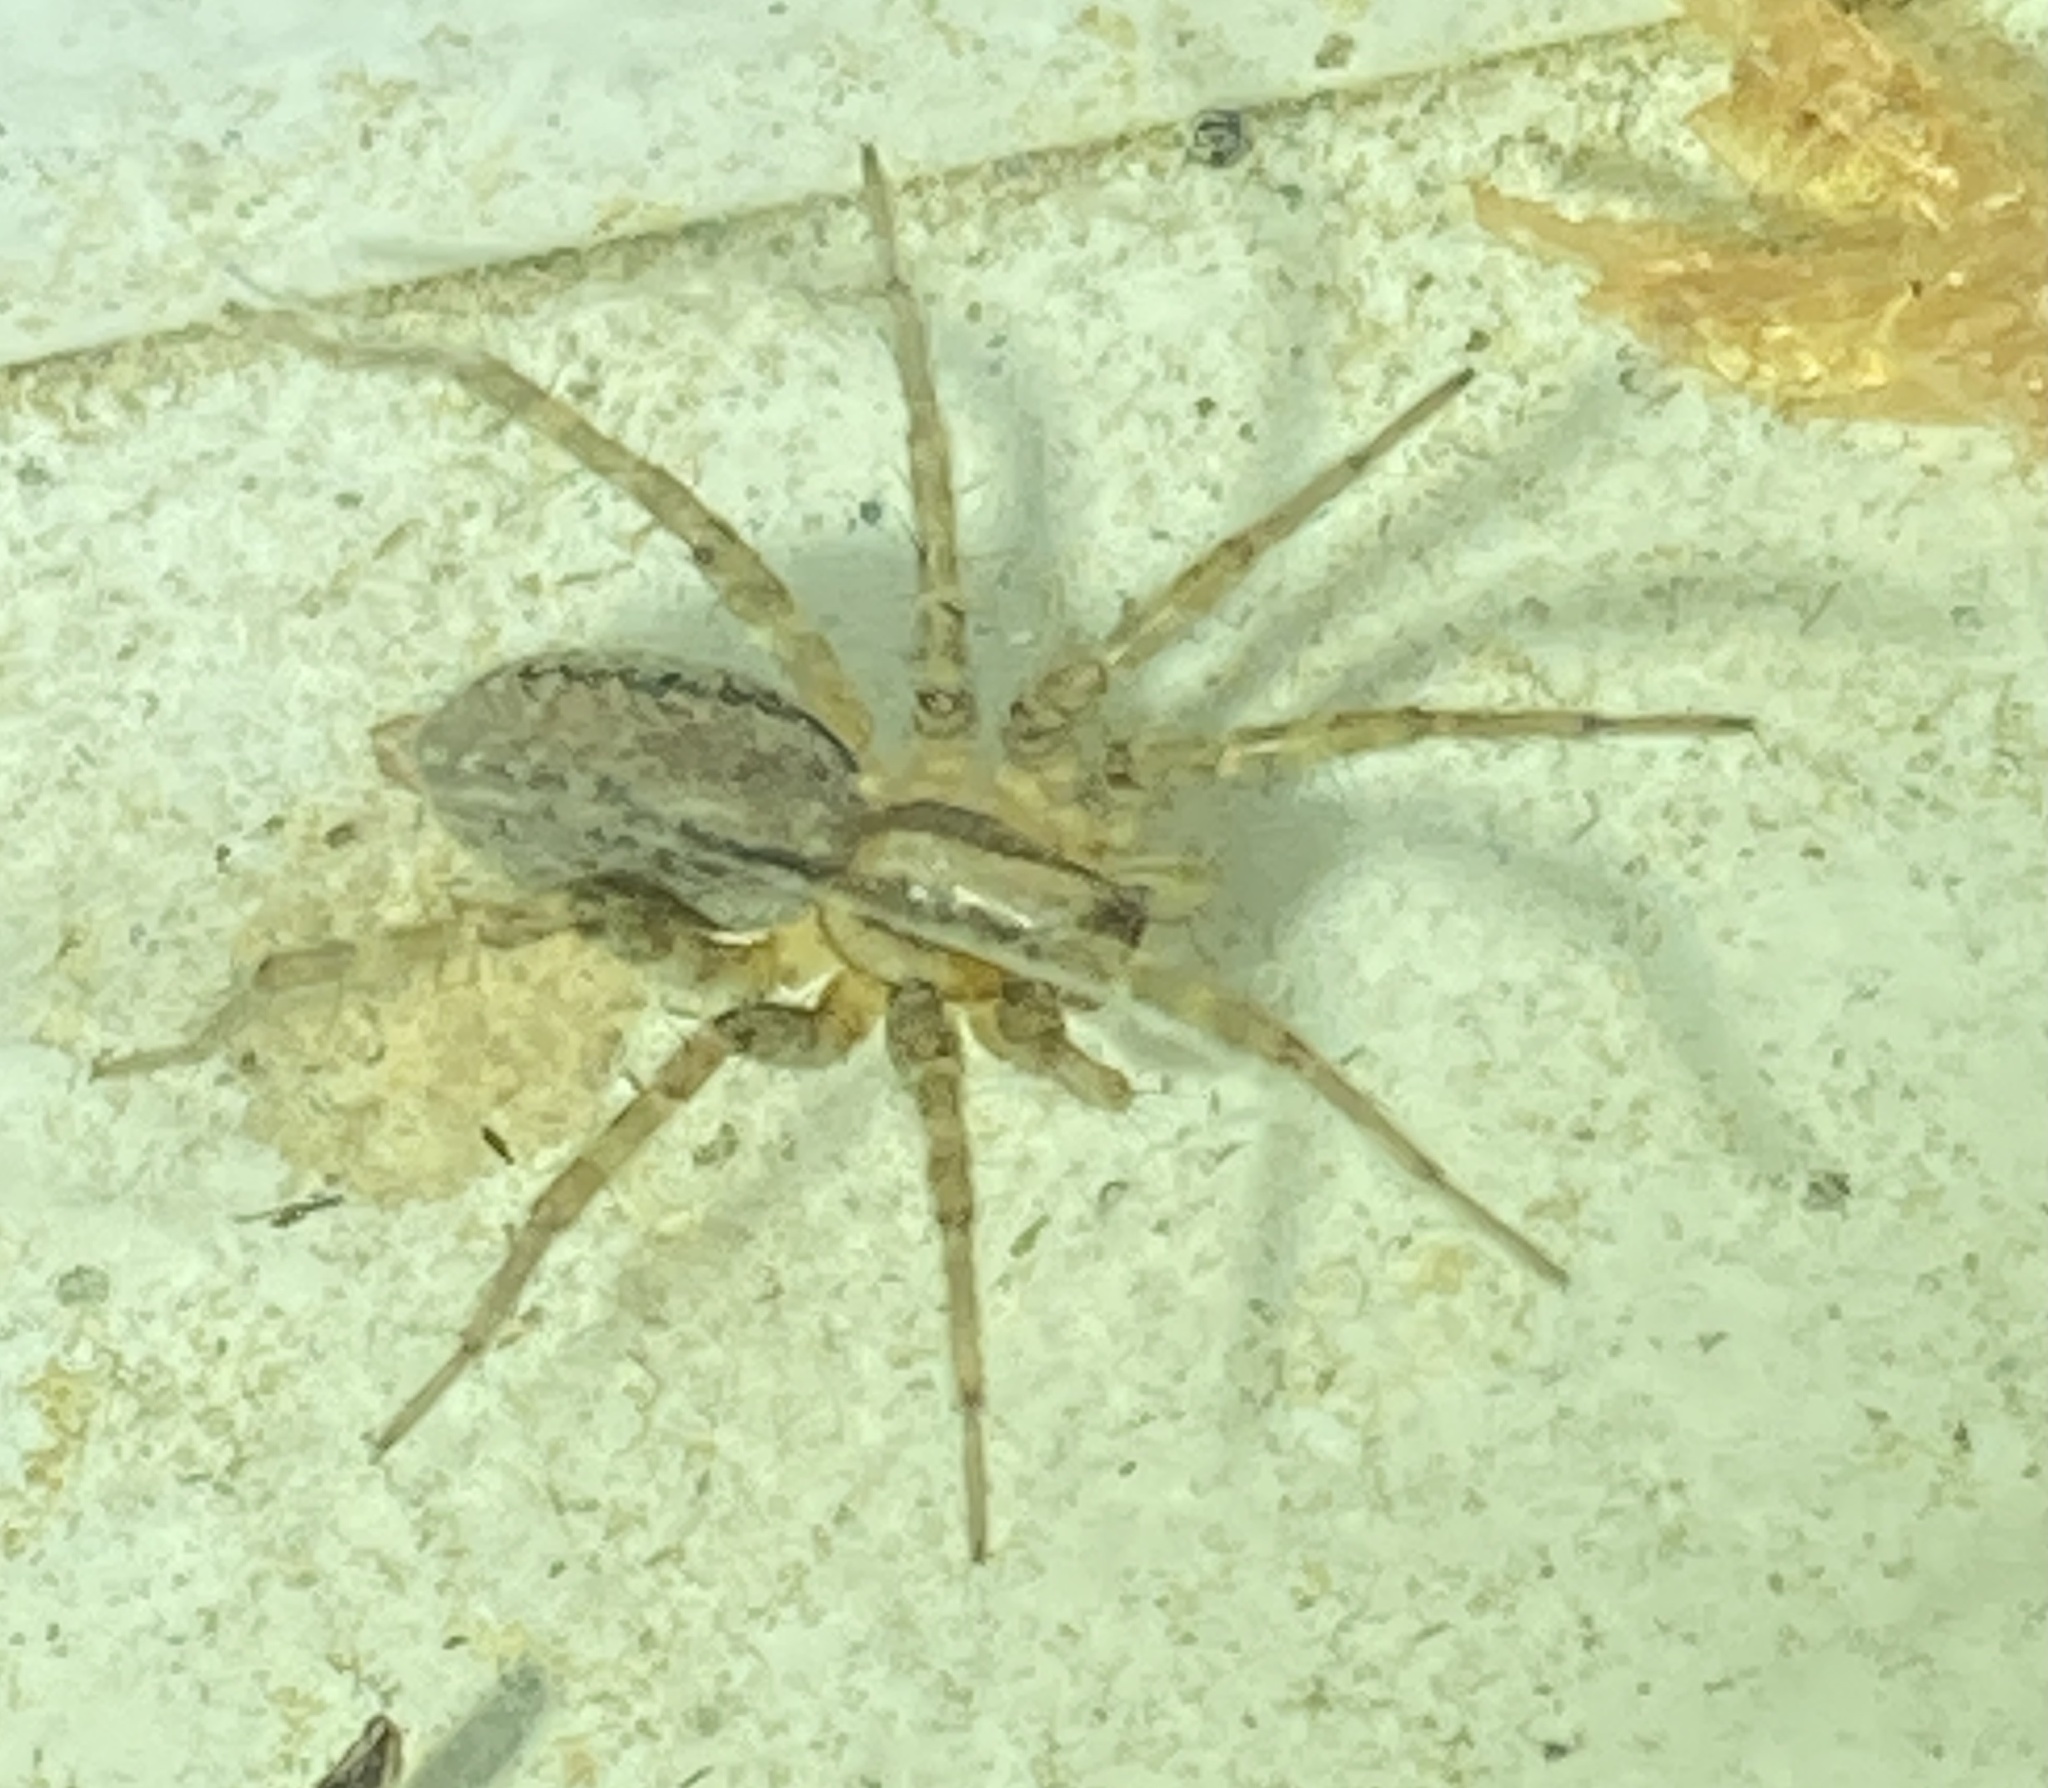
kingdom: Animalia
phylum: Arthropoda
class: Arachnida
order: Araneae
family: Agelenidae
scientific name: Agelenidae
